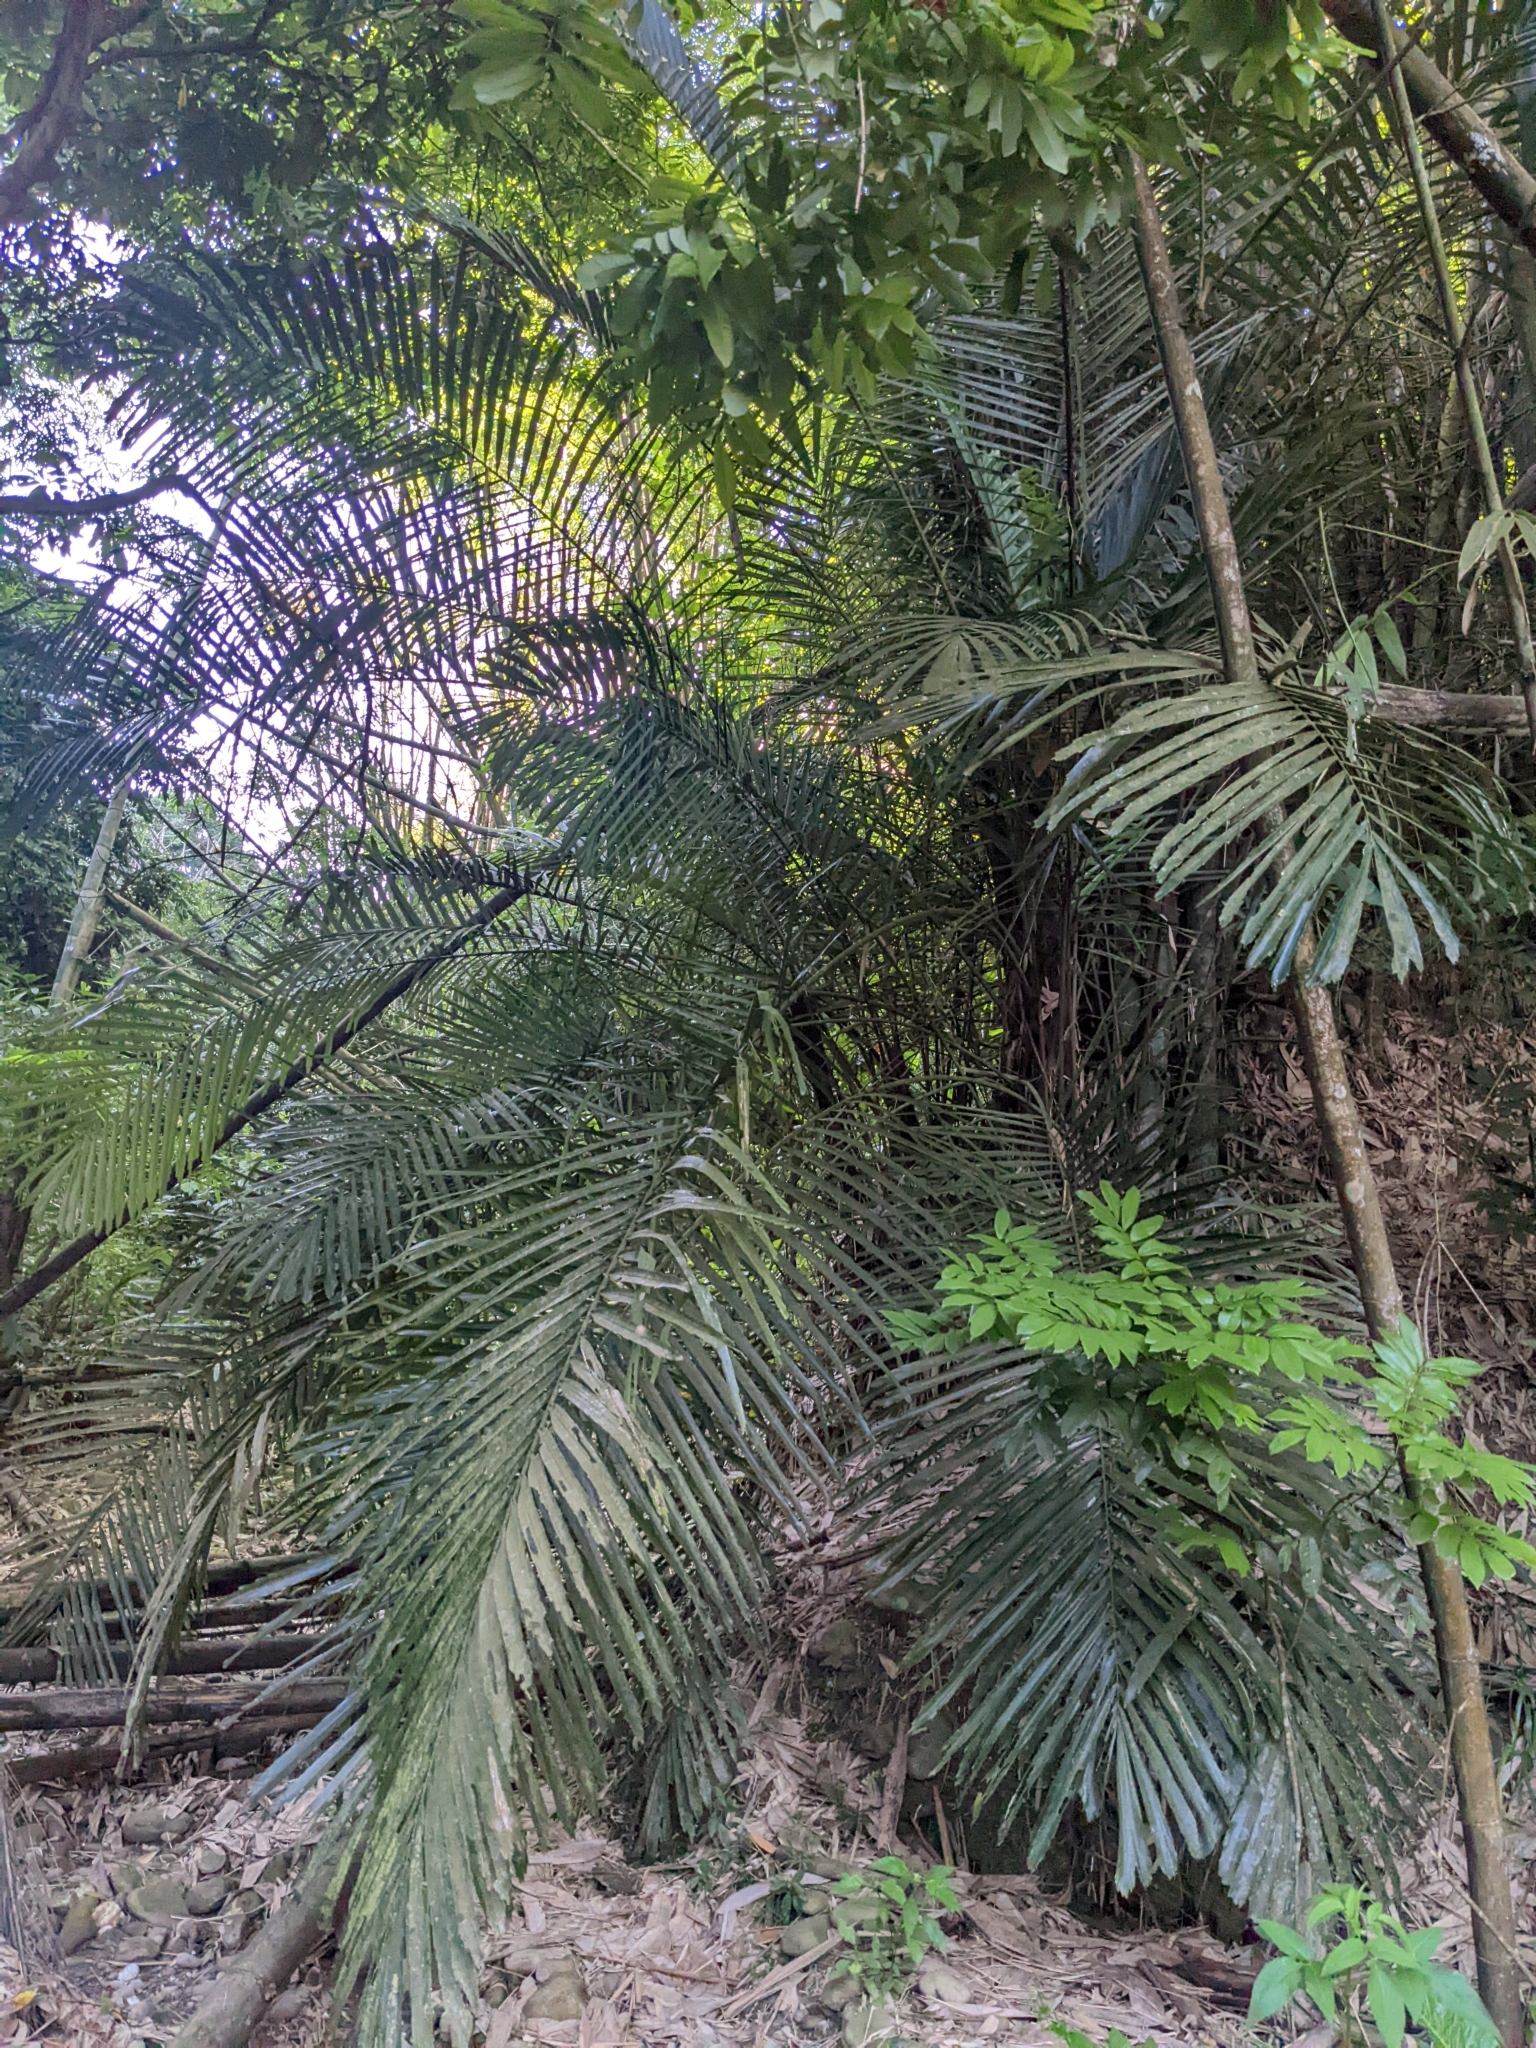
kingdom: Plantae
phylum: Tracheophyta
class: Liliopsida
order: Arecales
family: Arecaceae
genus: Arenga
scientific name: Arenga engleri
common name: Formosan sugar palm
